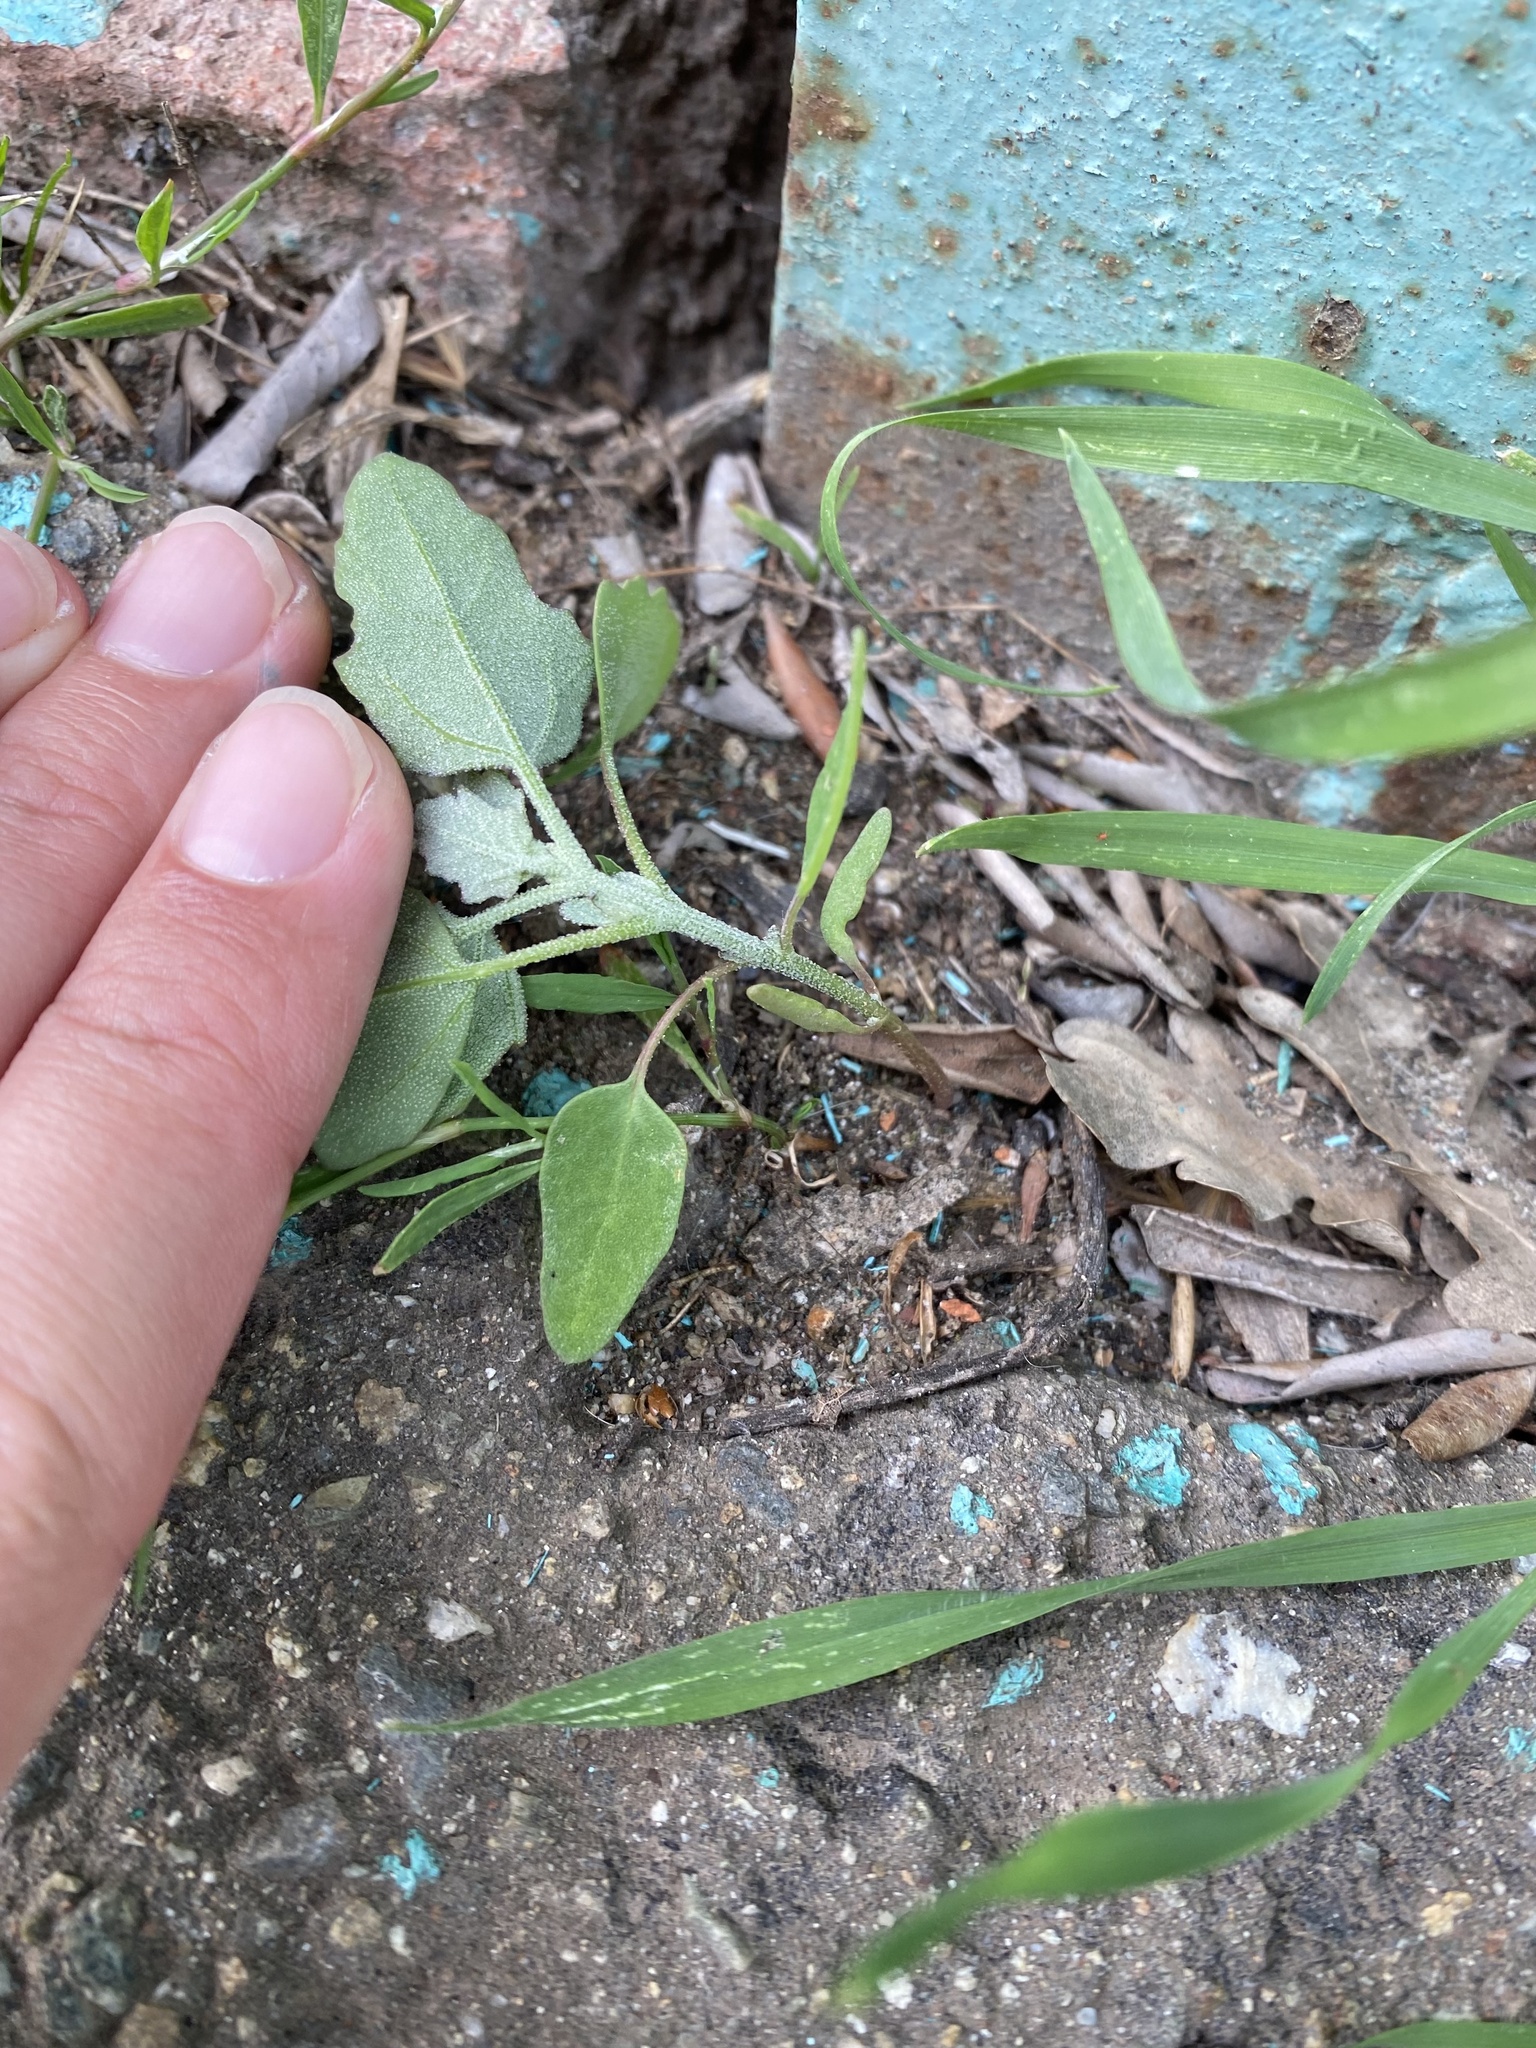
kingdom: Plantae
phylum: Tracheophyta
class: Magnoliopsida
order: Caryophyllales
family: Amaranthaceae
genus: Chenopodium
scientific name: Chenopodium album
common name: Fat-hen
